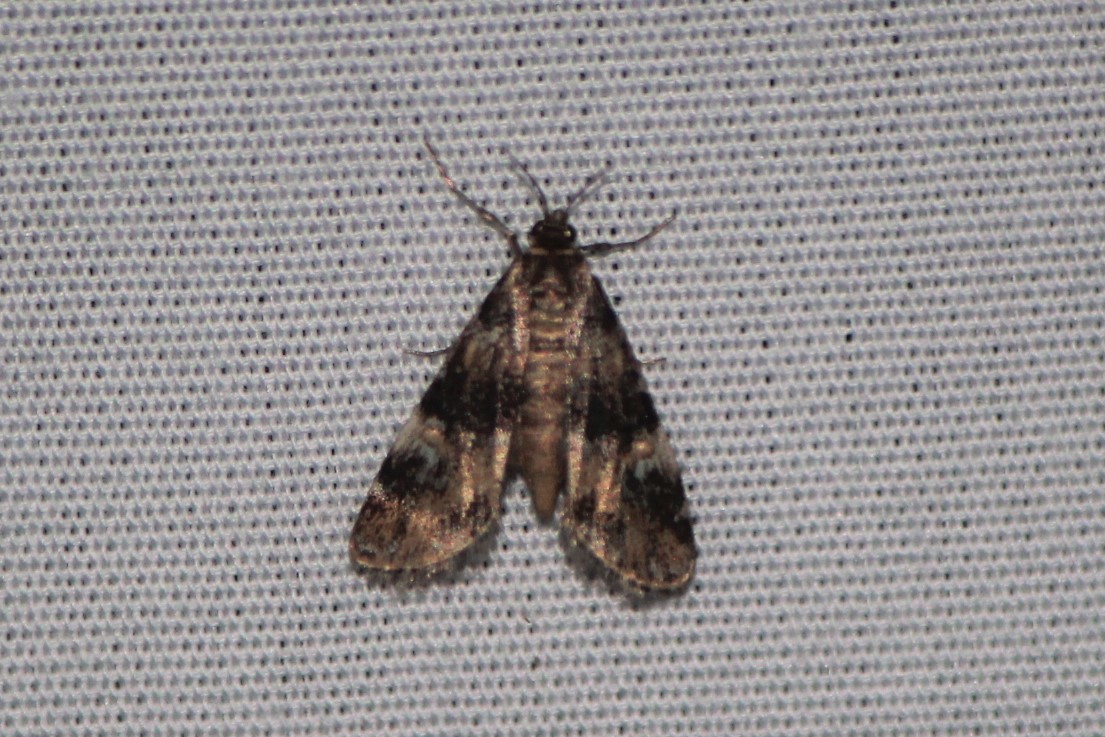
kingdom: Animalia
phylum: Arthropoda
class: Insecta
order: Lepidoptera
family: Crambidae
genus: Elophila
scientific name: Elophila obliteralis
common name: Waterlily leafcutter moth
